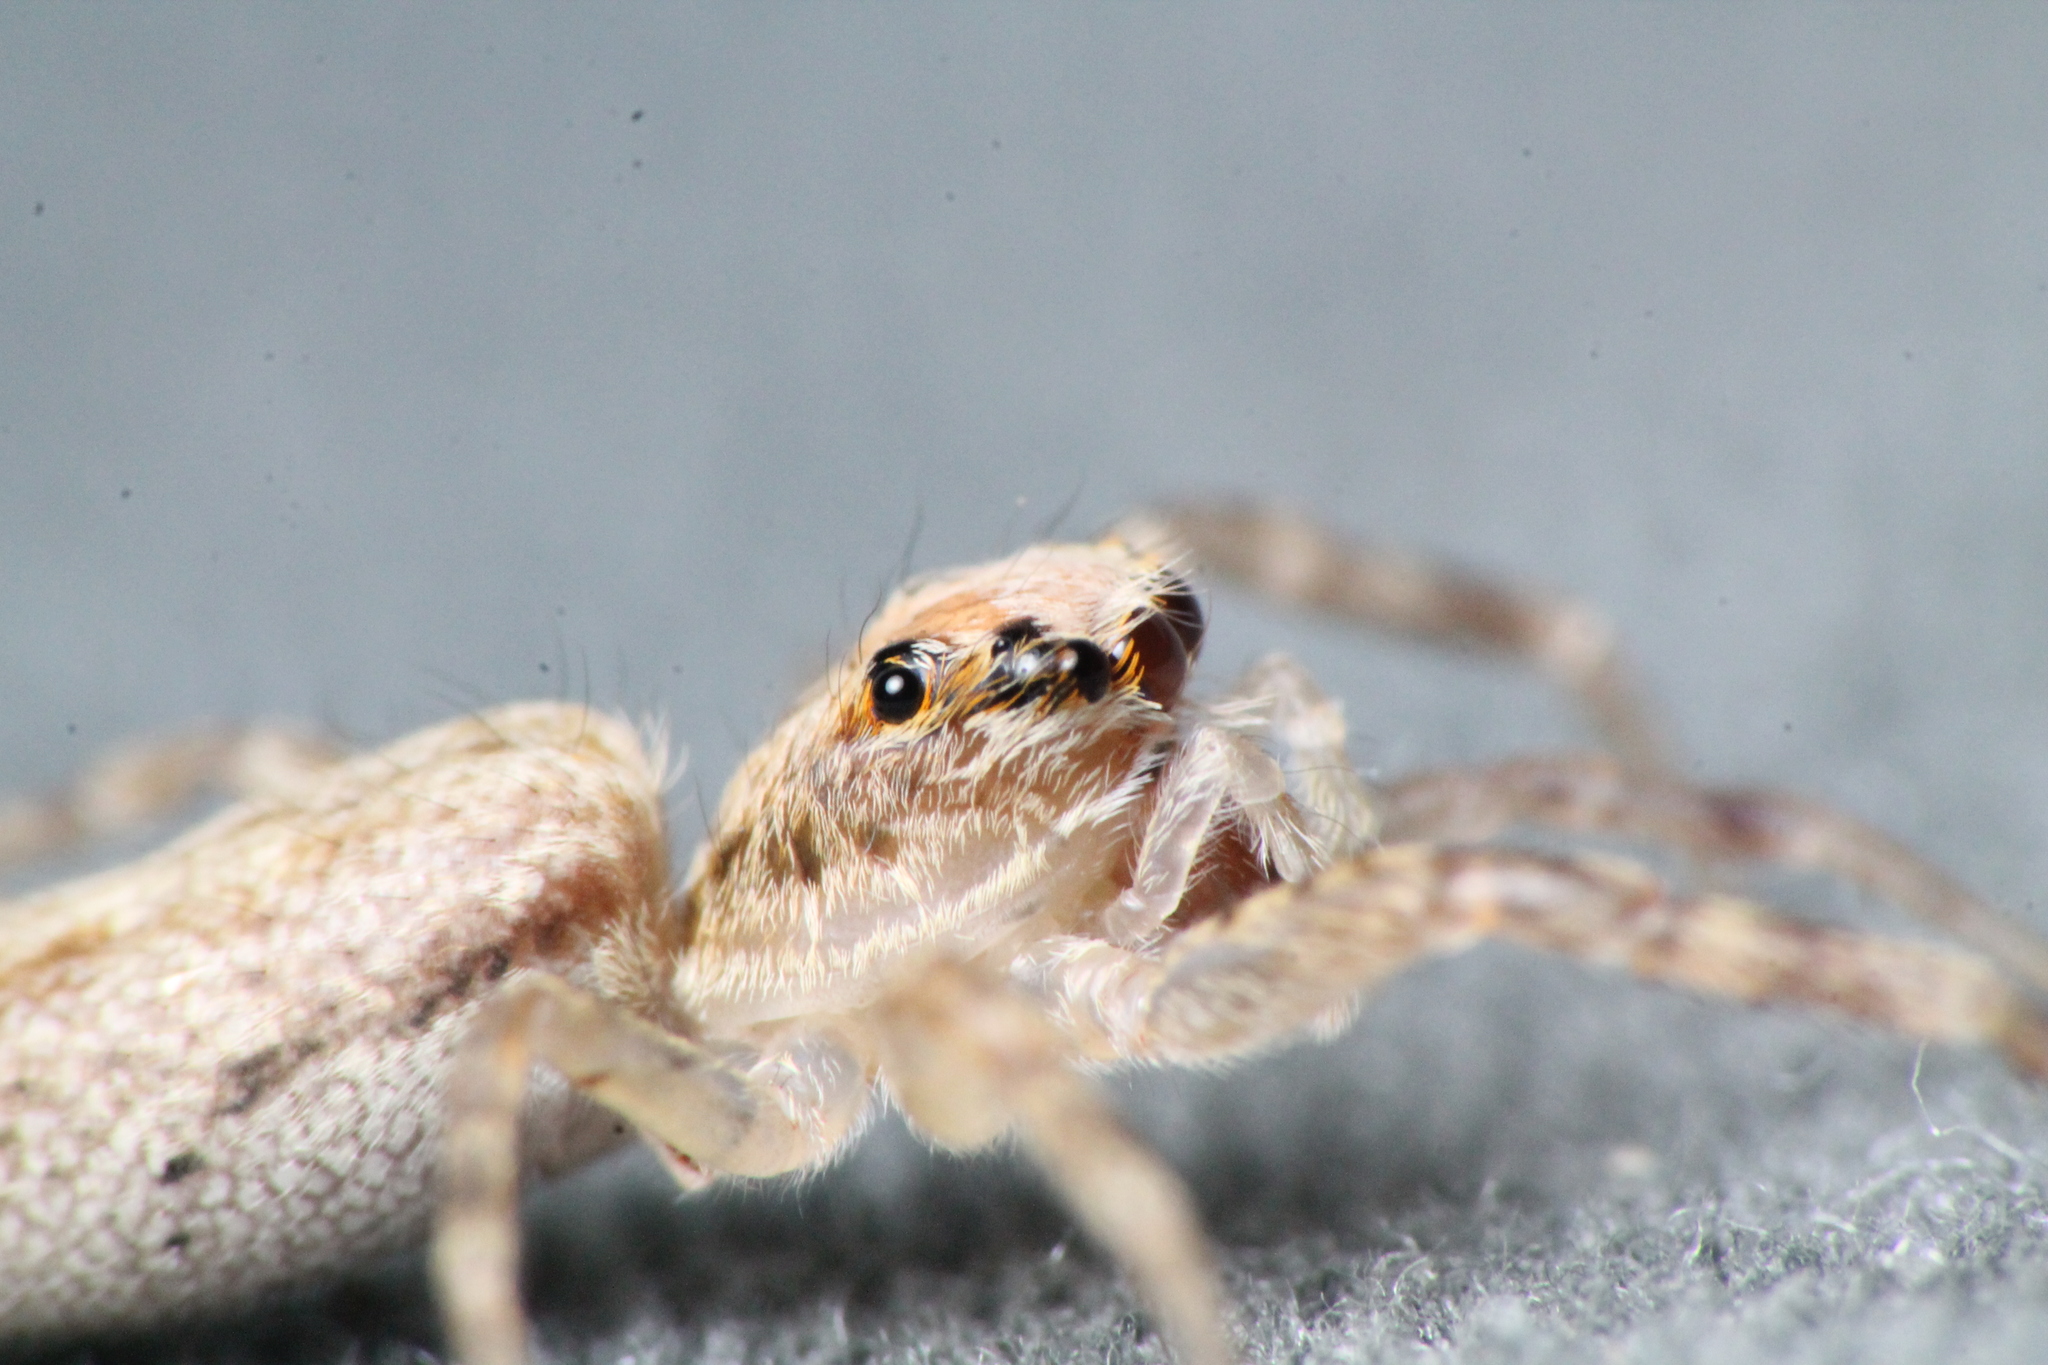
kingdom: Animalia
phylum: Arthropoda
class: Arachnida
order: Araneae
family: Salticidae
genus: Helpis
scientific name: Helpis minitabunda
